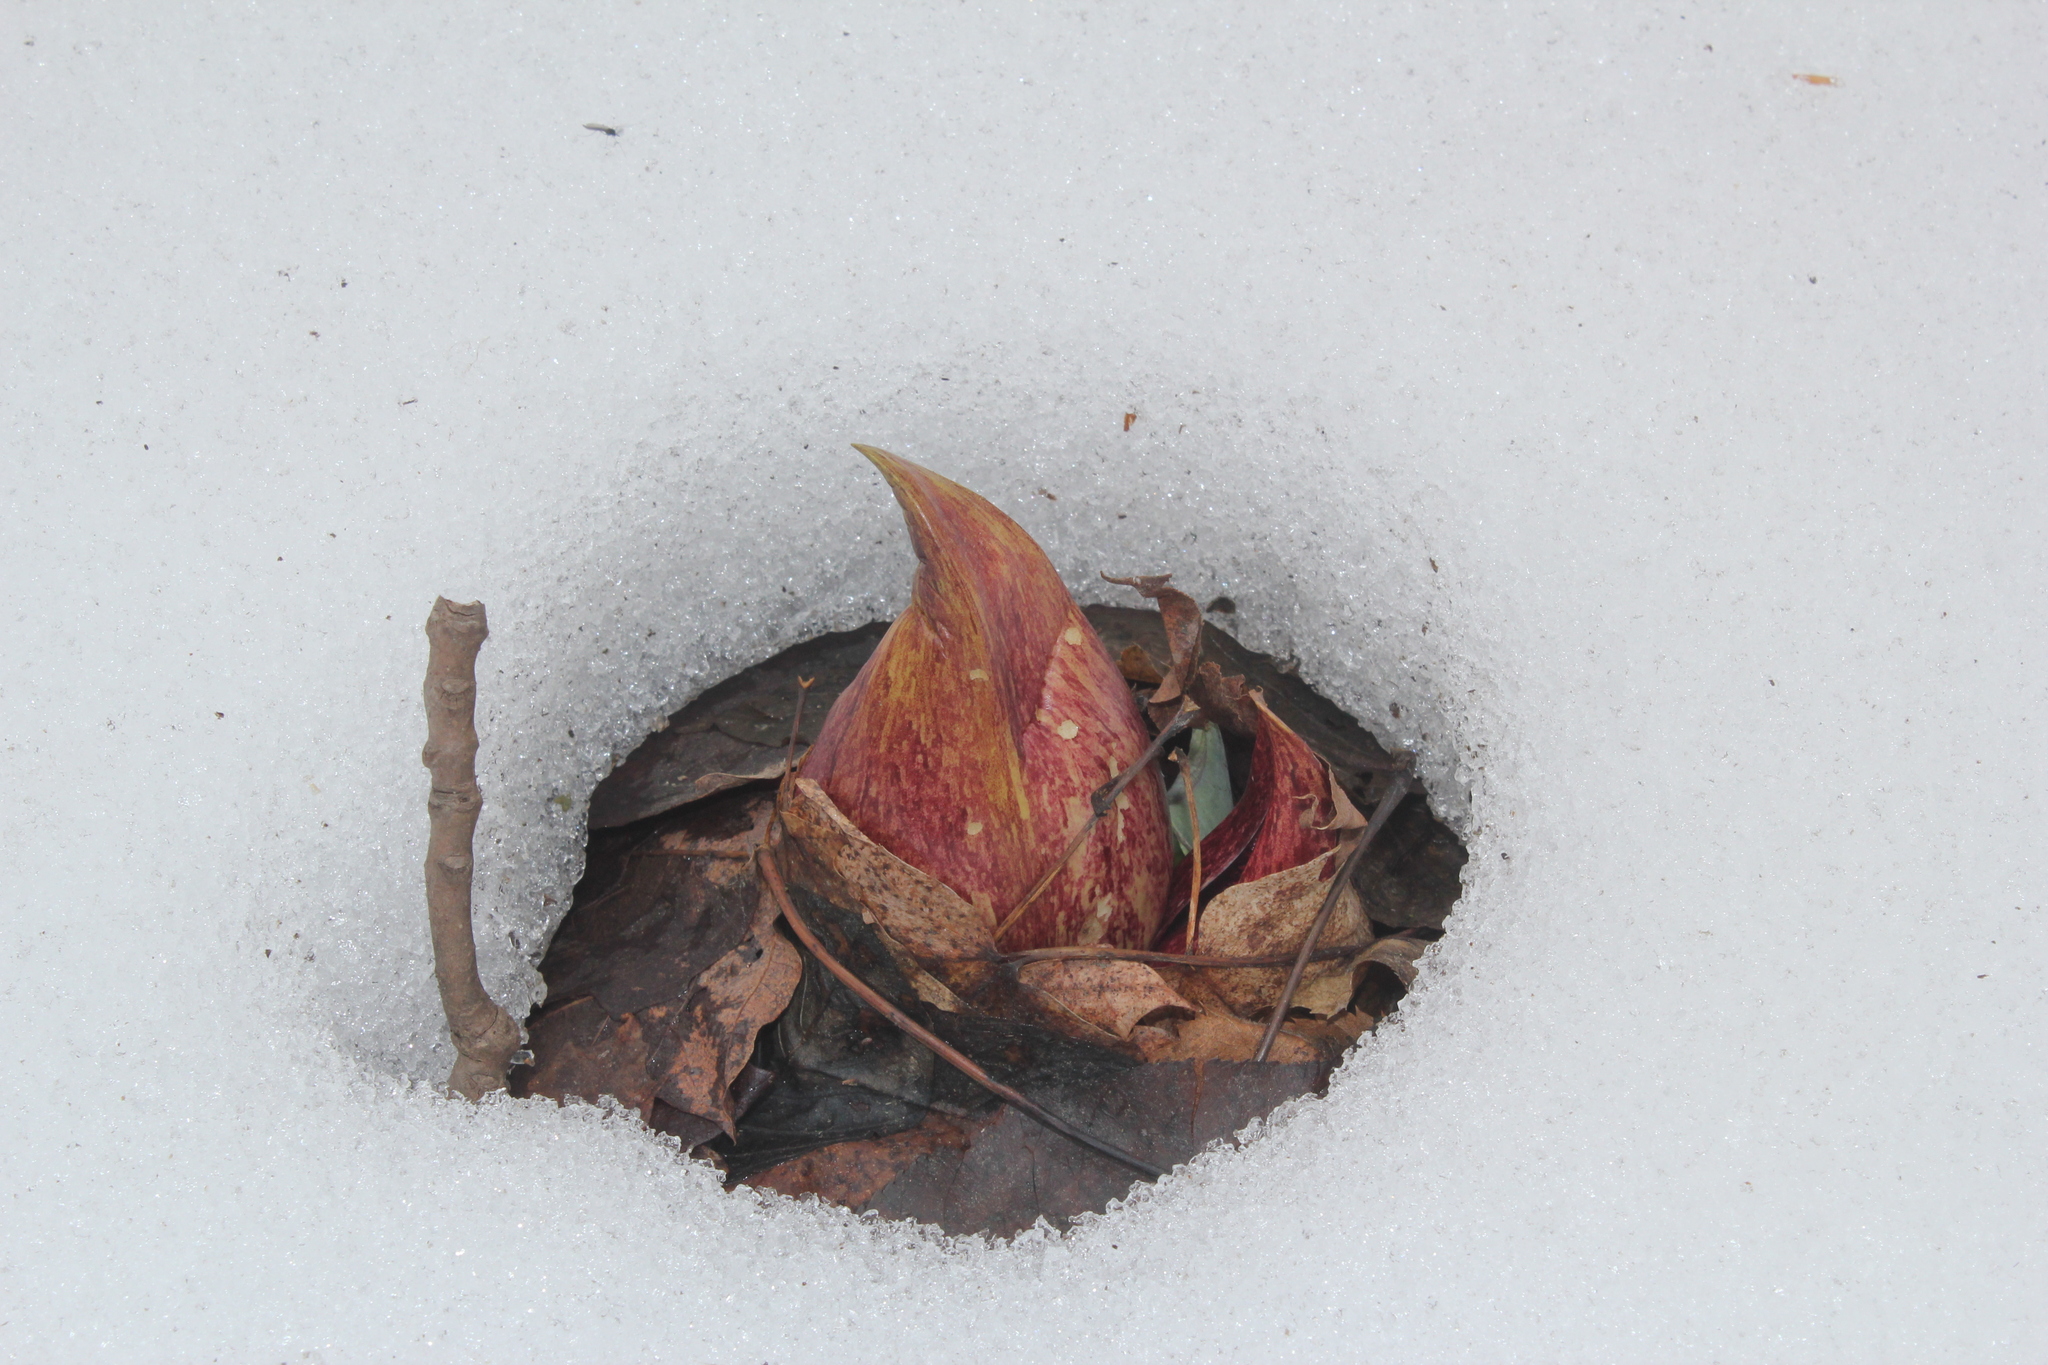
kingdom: Plantae
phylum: Tracheophyta
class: Liliopsida
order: Alismatales
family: Araceae
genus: Symplocarpus
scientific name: Symplocarpus foetidus
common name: Eastern skunk cabbage
